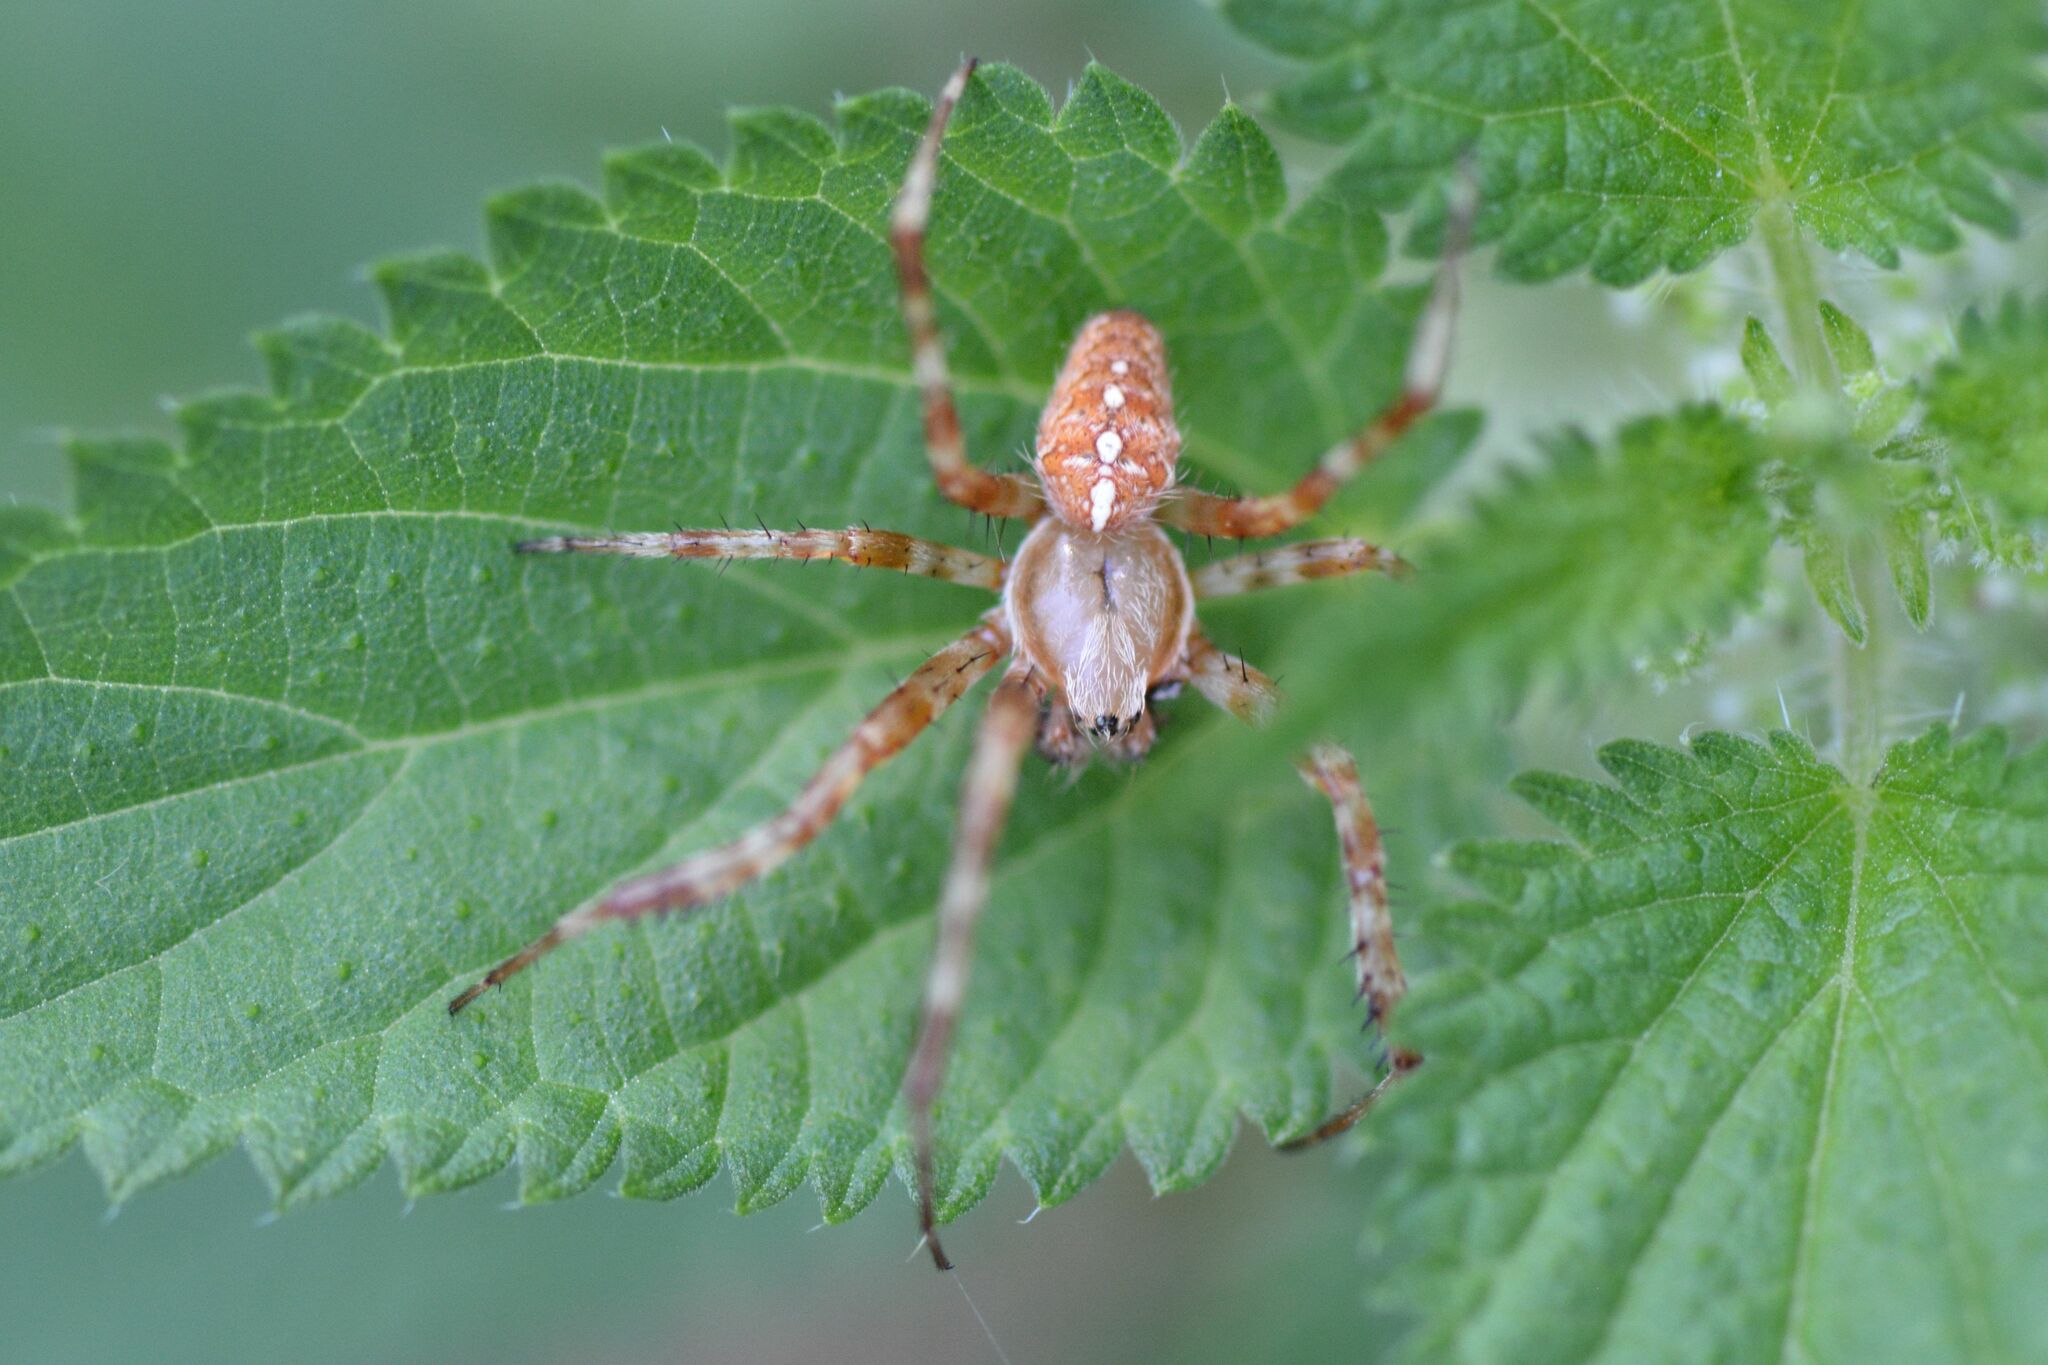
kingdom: Animalia
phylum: Arthropoda
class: Arachnida
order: Araneae
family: Araneidae
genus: Araneus
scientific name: Araneus diadematus
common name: Cross orbweaver
